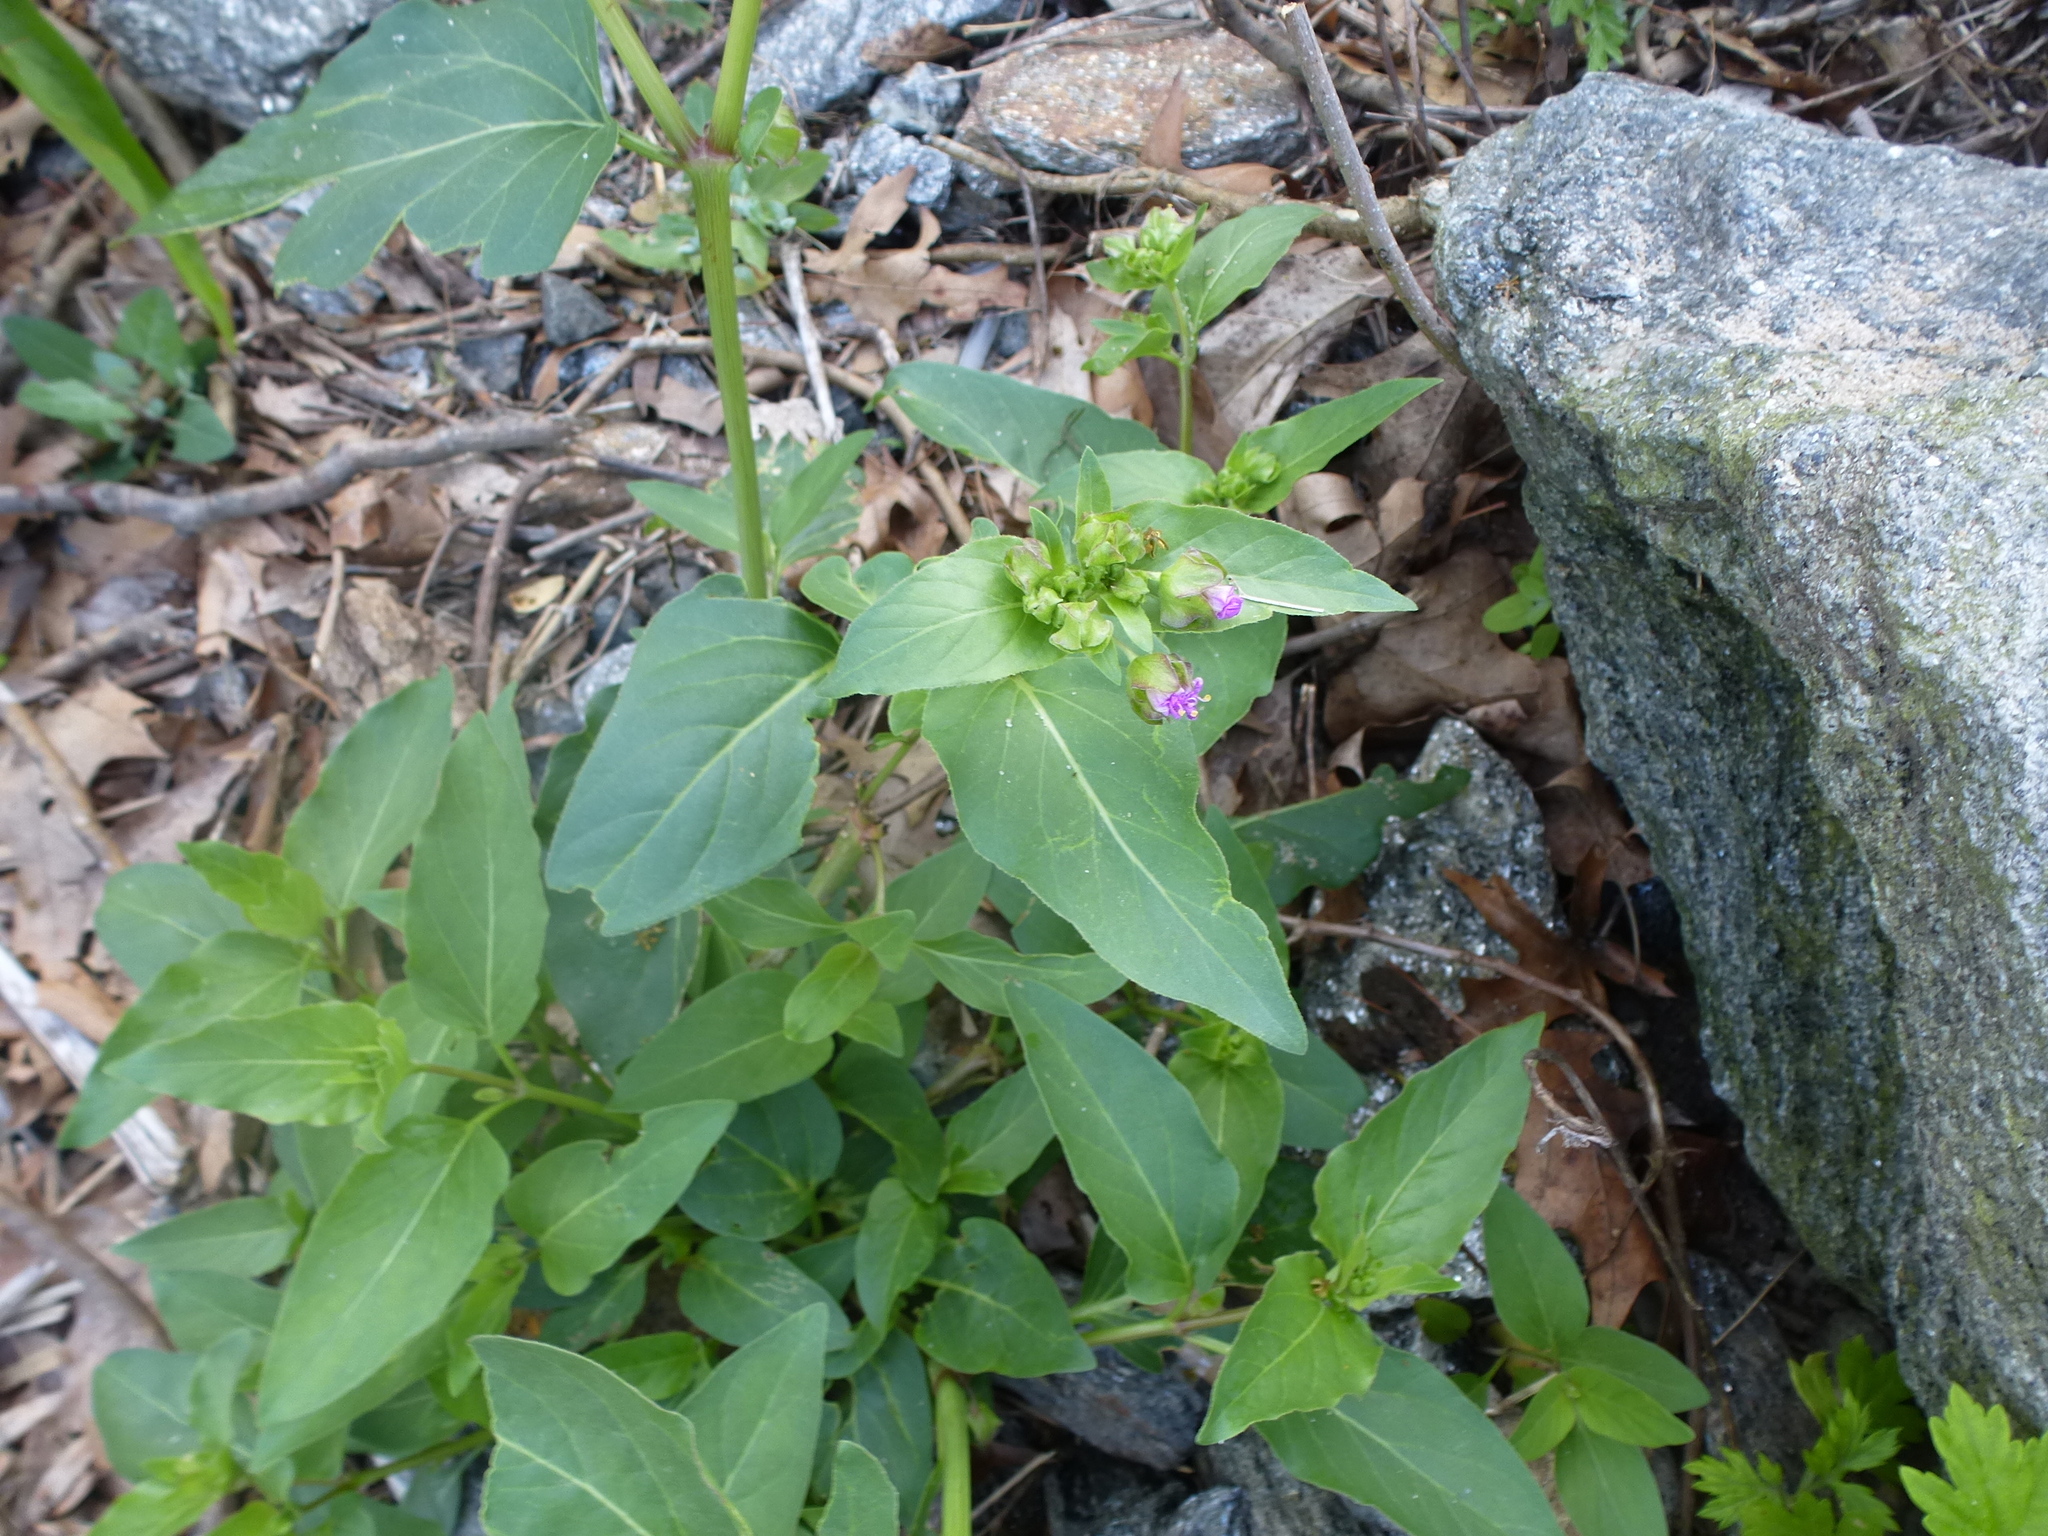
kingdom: Plantae
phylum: Tracheophyta
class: Magnoliopsida
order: Caryophyllales
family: Nyctaginaceae
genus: Mirabilis
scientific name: Mirabilis nyctaginea
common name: Umbrella wort
